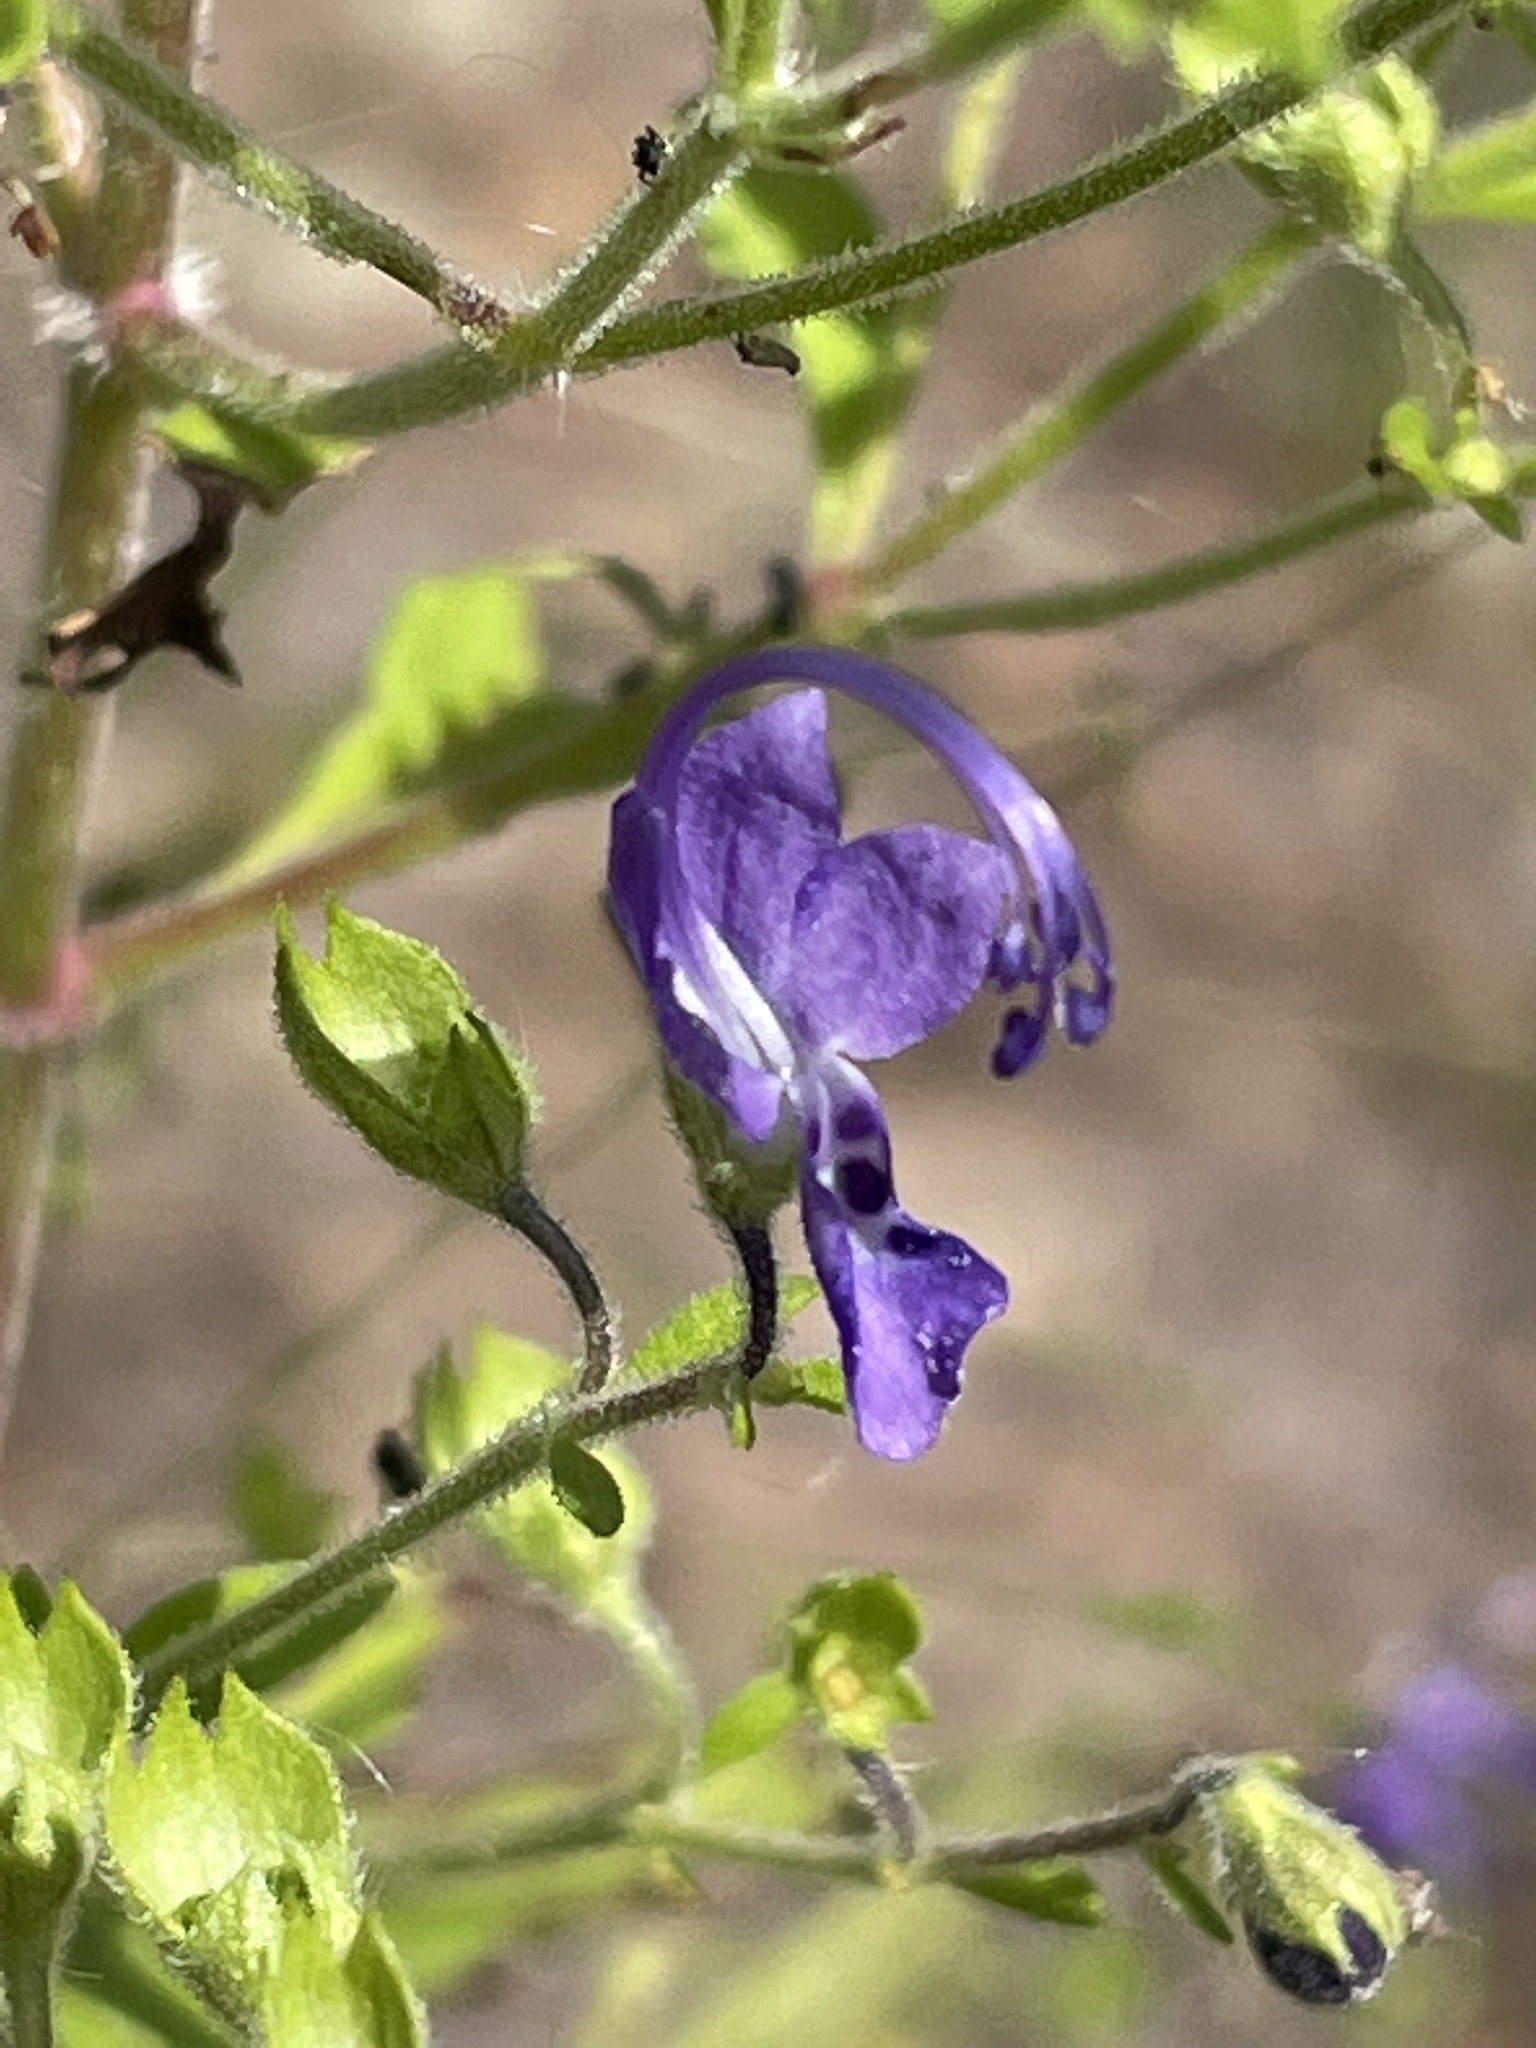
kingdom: Plantae
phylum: Tracheophyta
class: Magnoliopsida
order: Lamiales
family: Lamiaceae
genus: Trichostema
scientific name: Trichostema dichotomum
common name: Bastard pennyroyal
